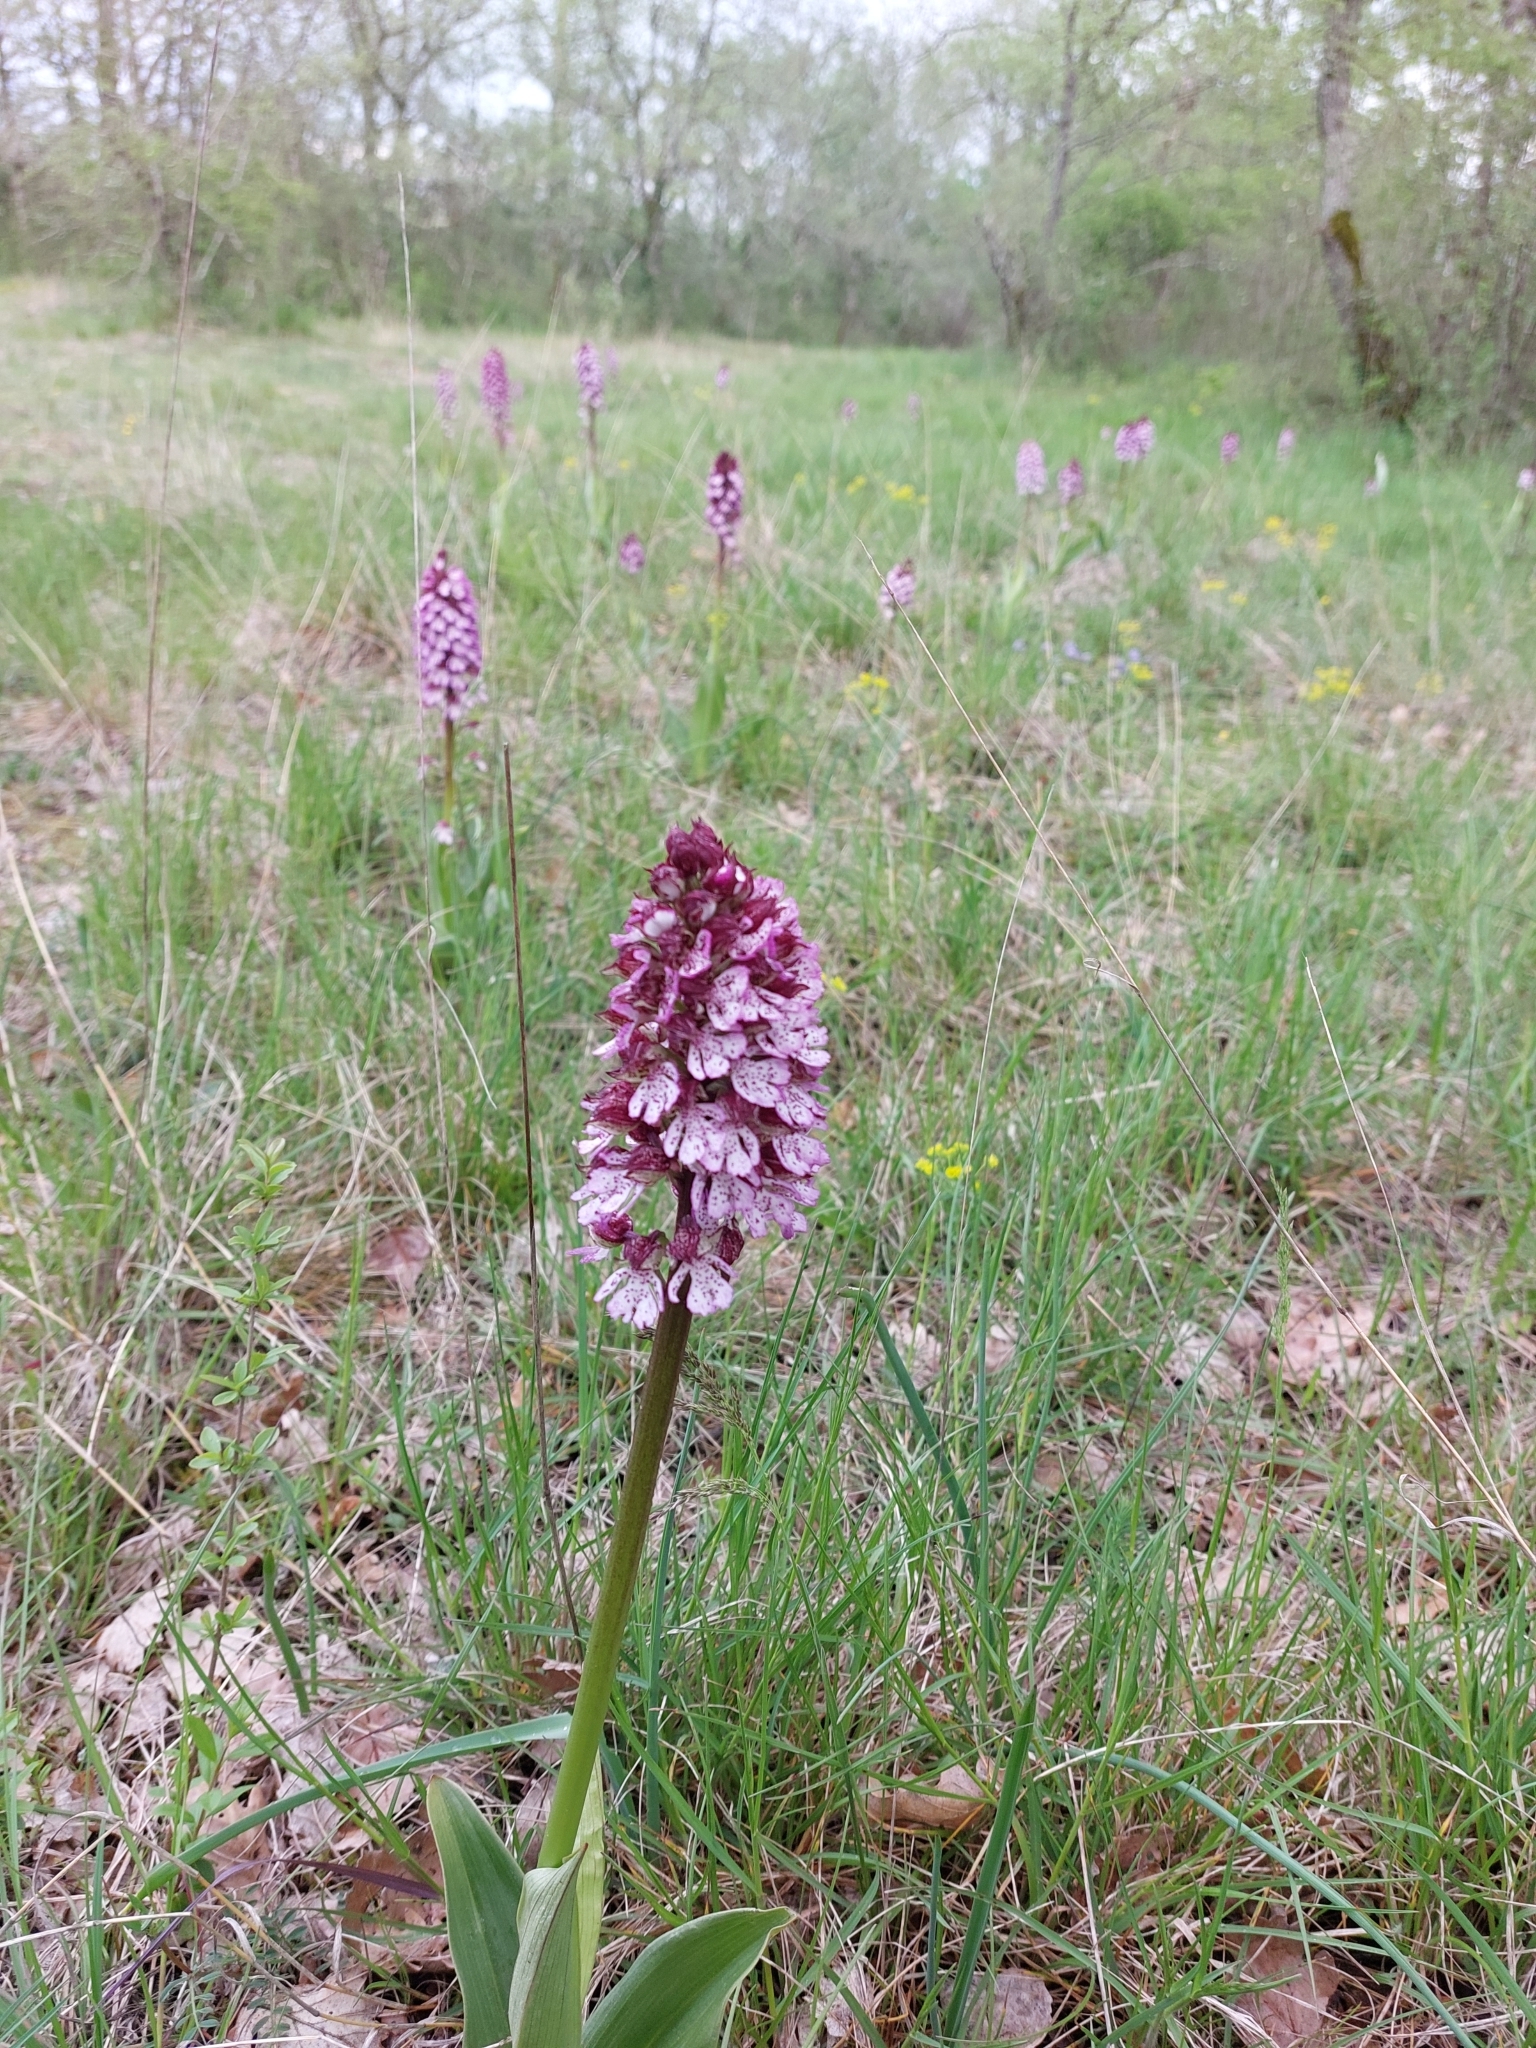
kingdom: Plantae
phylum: Tracheophyta
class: Liliopsida
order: Asparagales
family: Orchidaceae
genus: Orchis
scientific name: Orchis purpurea
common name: Lady orchid
